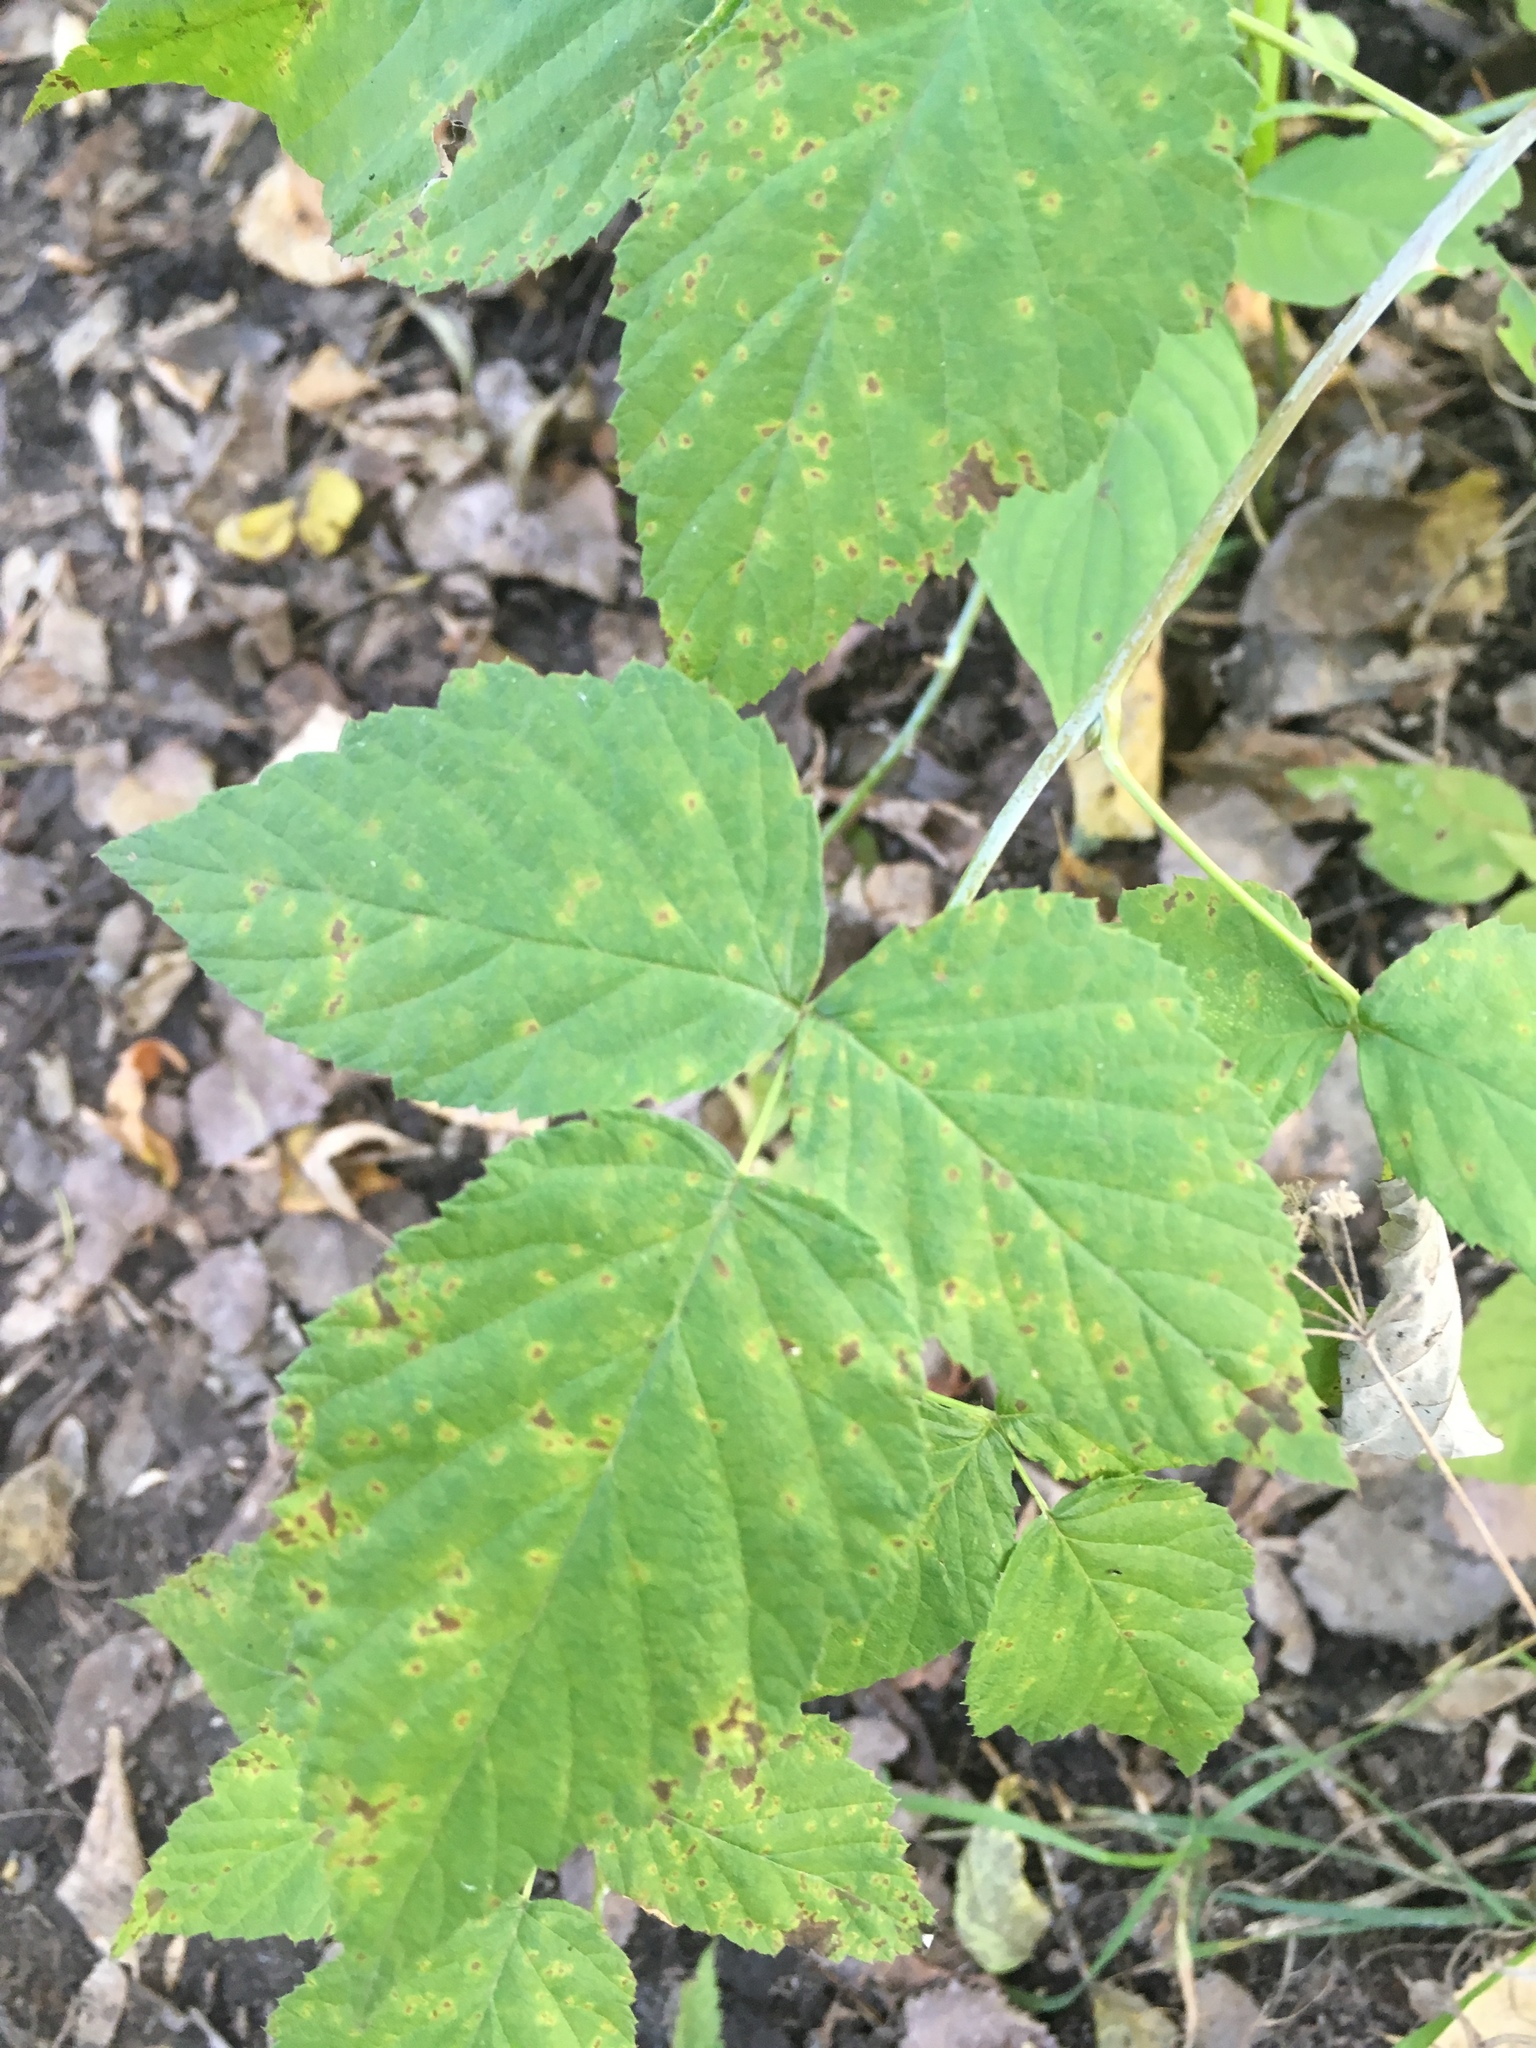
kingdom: Plantae
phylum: Tracheophyta
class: Magnoliopsida
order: Rosales
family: Rosaceae
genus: Rubus
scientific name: Rubus occidentalis
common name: Black raspberry
